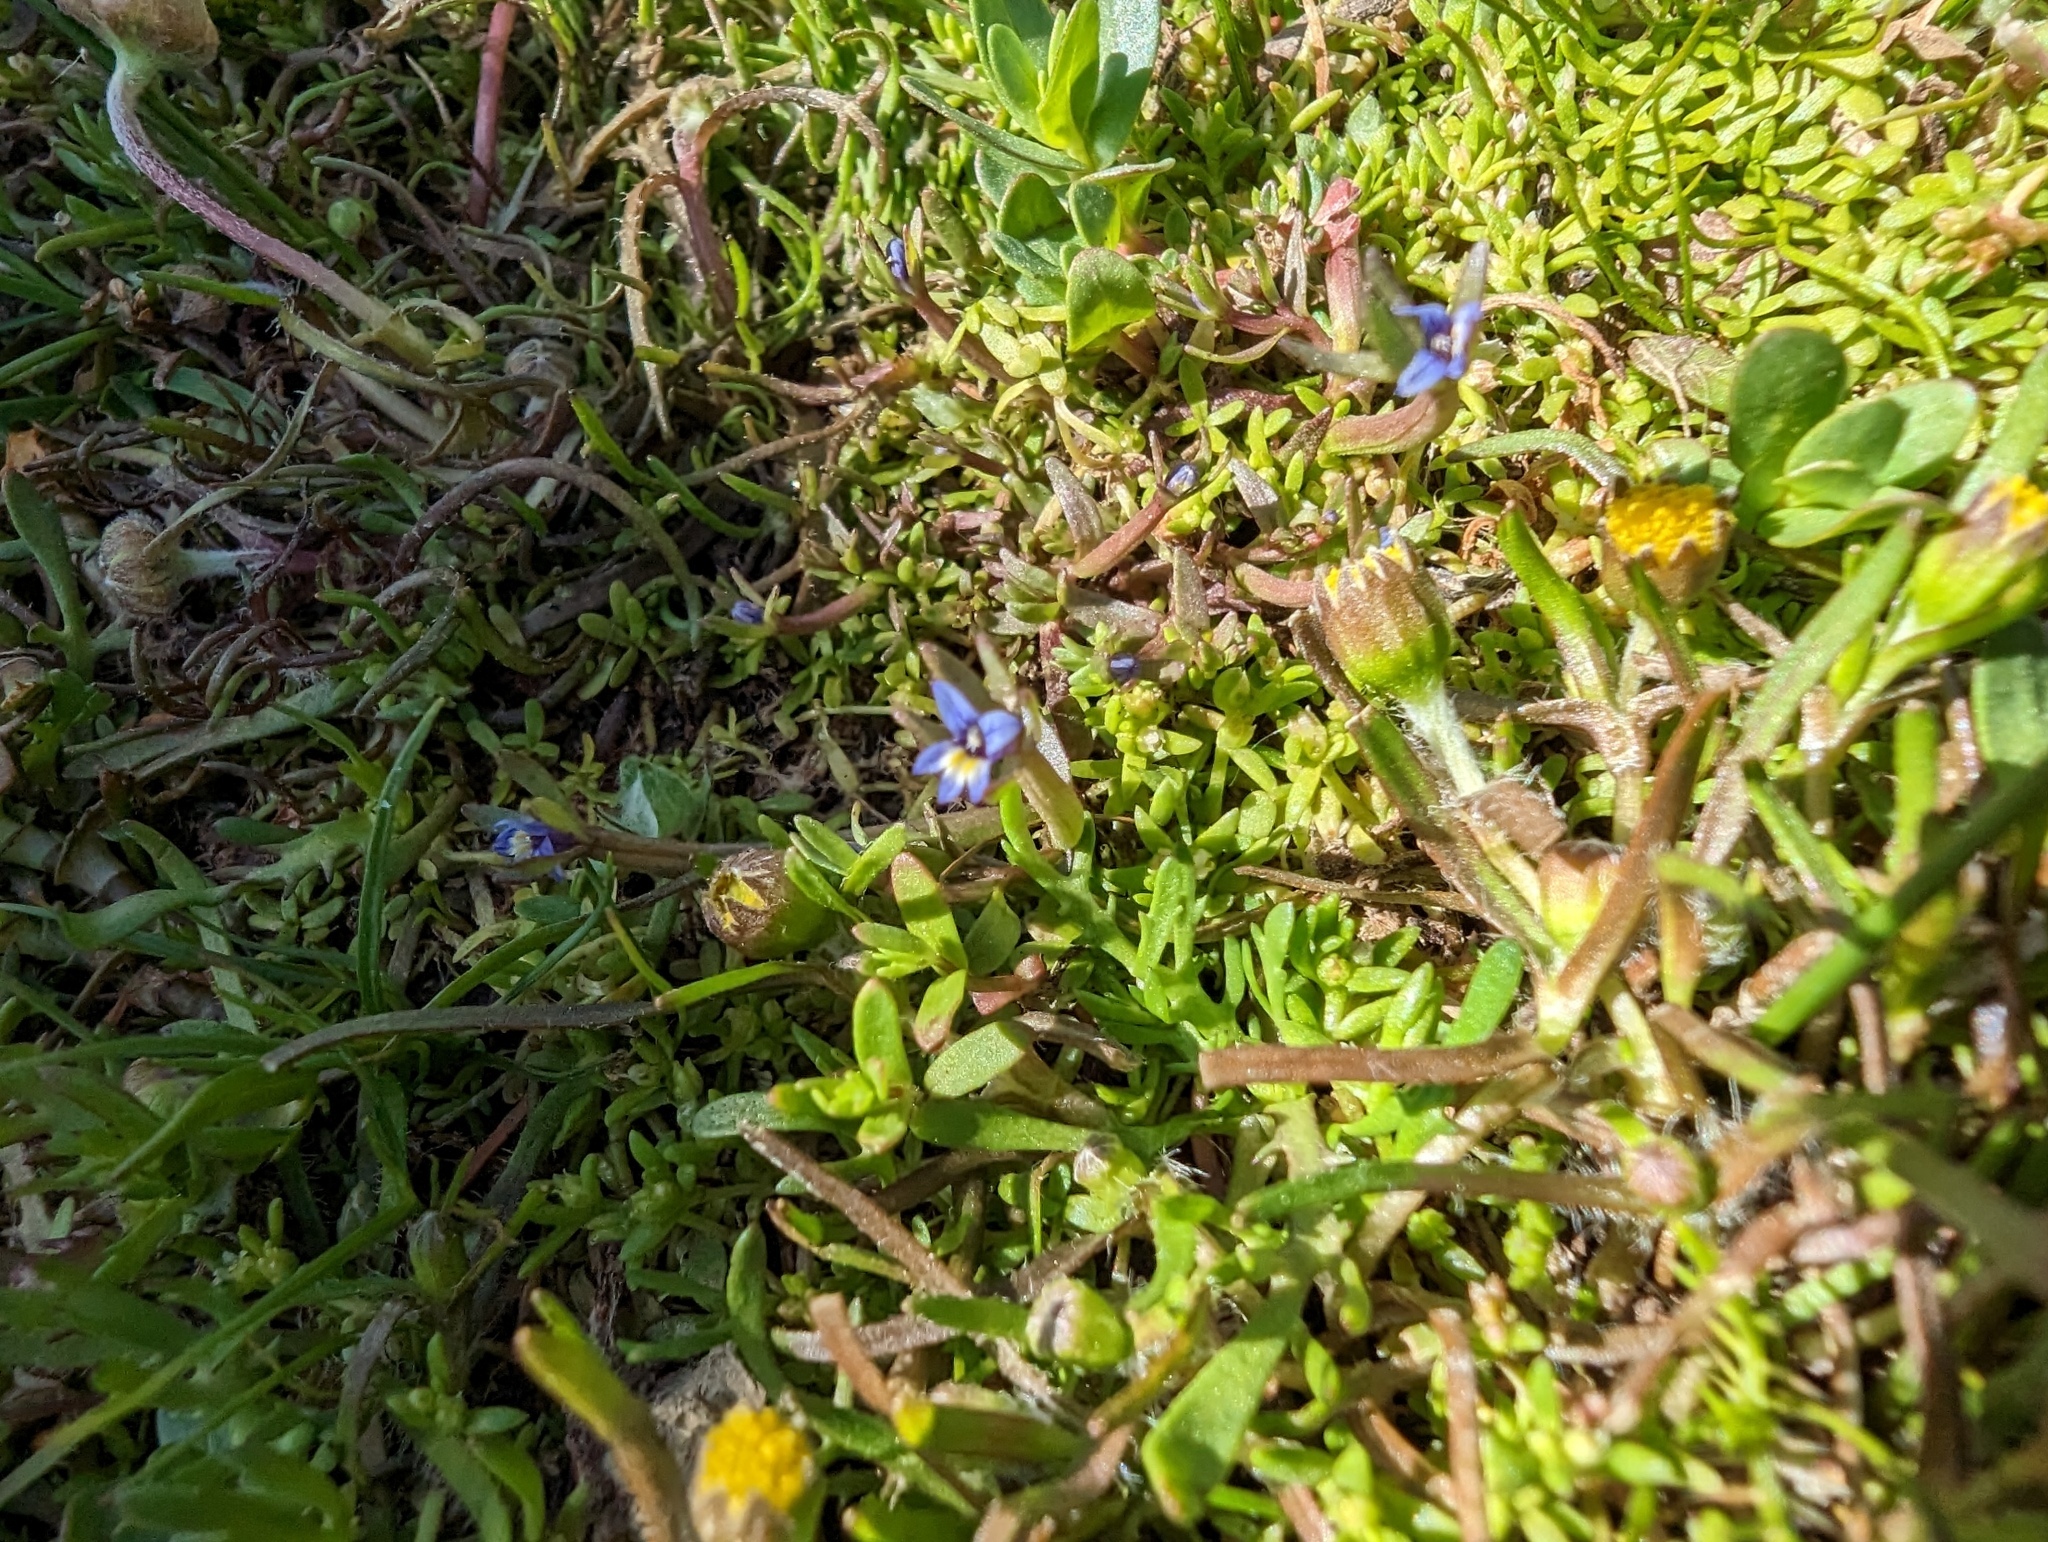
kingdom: Plantae
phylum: Tracheophyta
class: Magnoliopsida
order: Asterales
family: Campanulaceae
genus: Downingia
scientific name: Downingia pusilla
